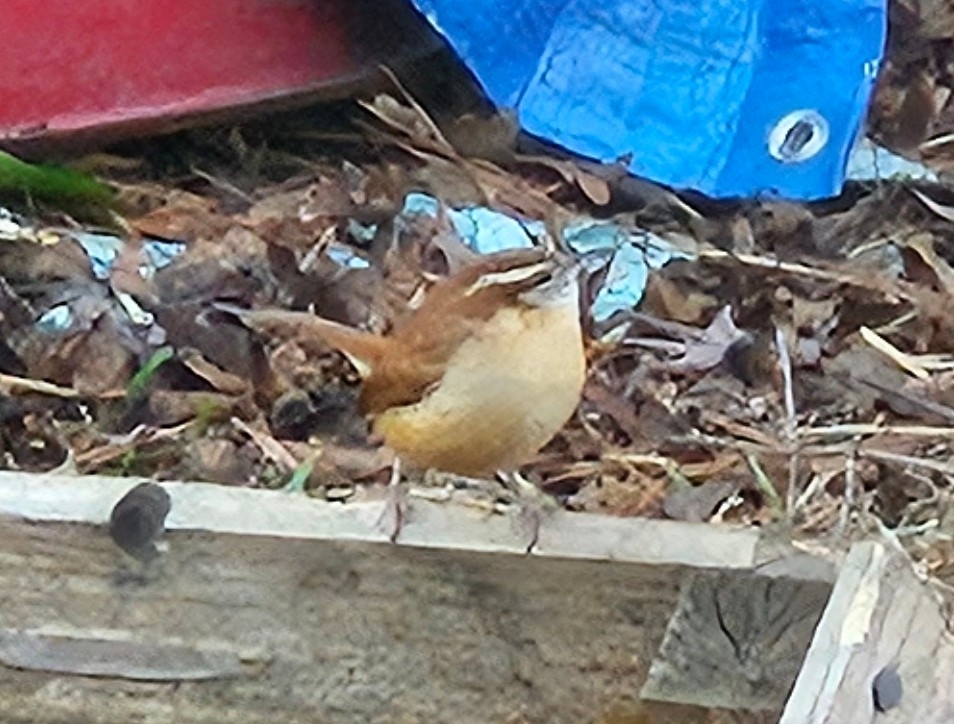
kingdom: Animalia
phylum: Chordata
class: Aves
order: Passeriformes
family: Troglodytidae
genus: Thryothorus
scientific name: Thryothorus ludovicianus
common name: Carolina wren
